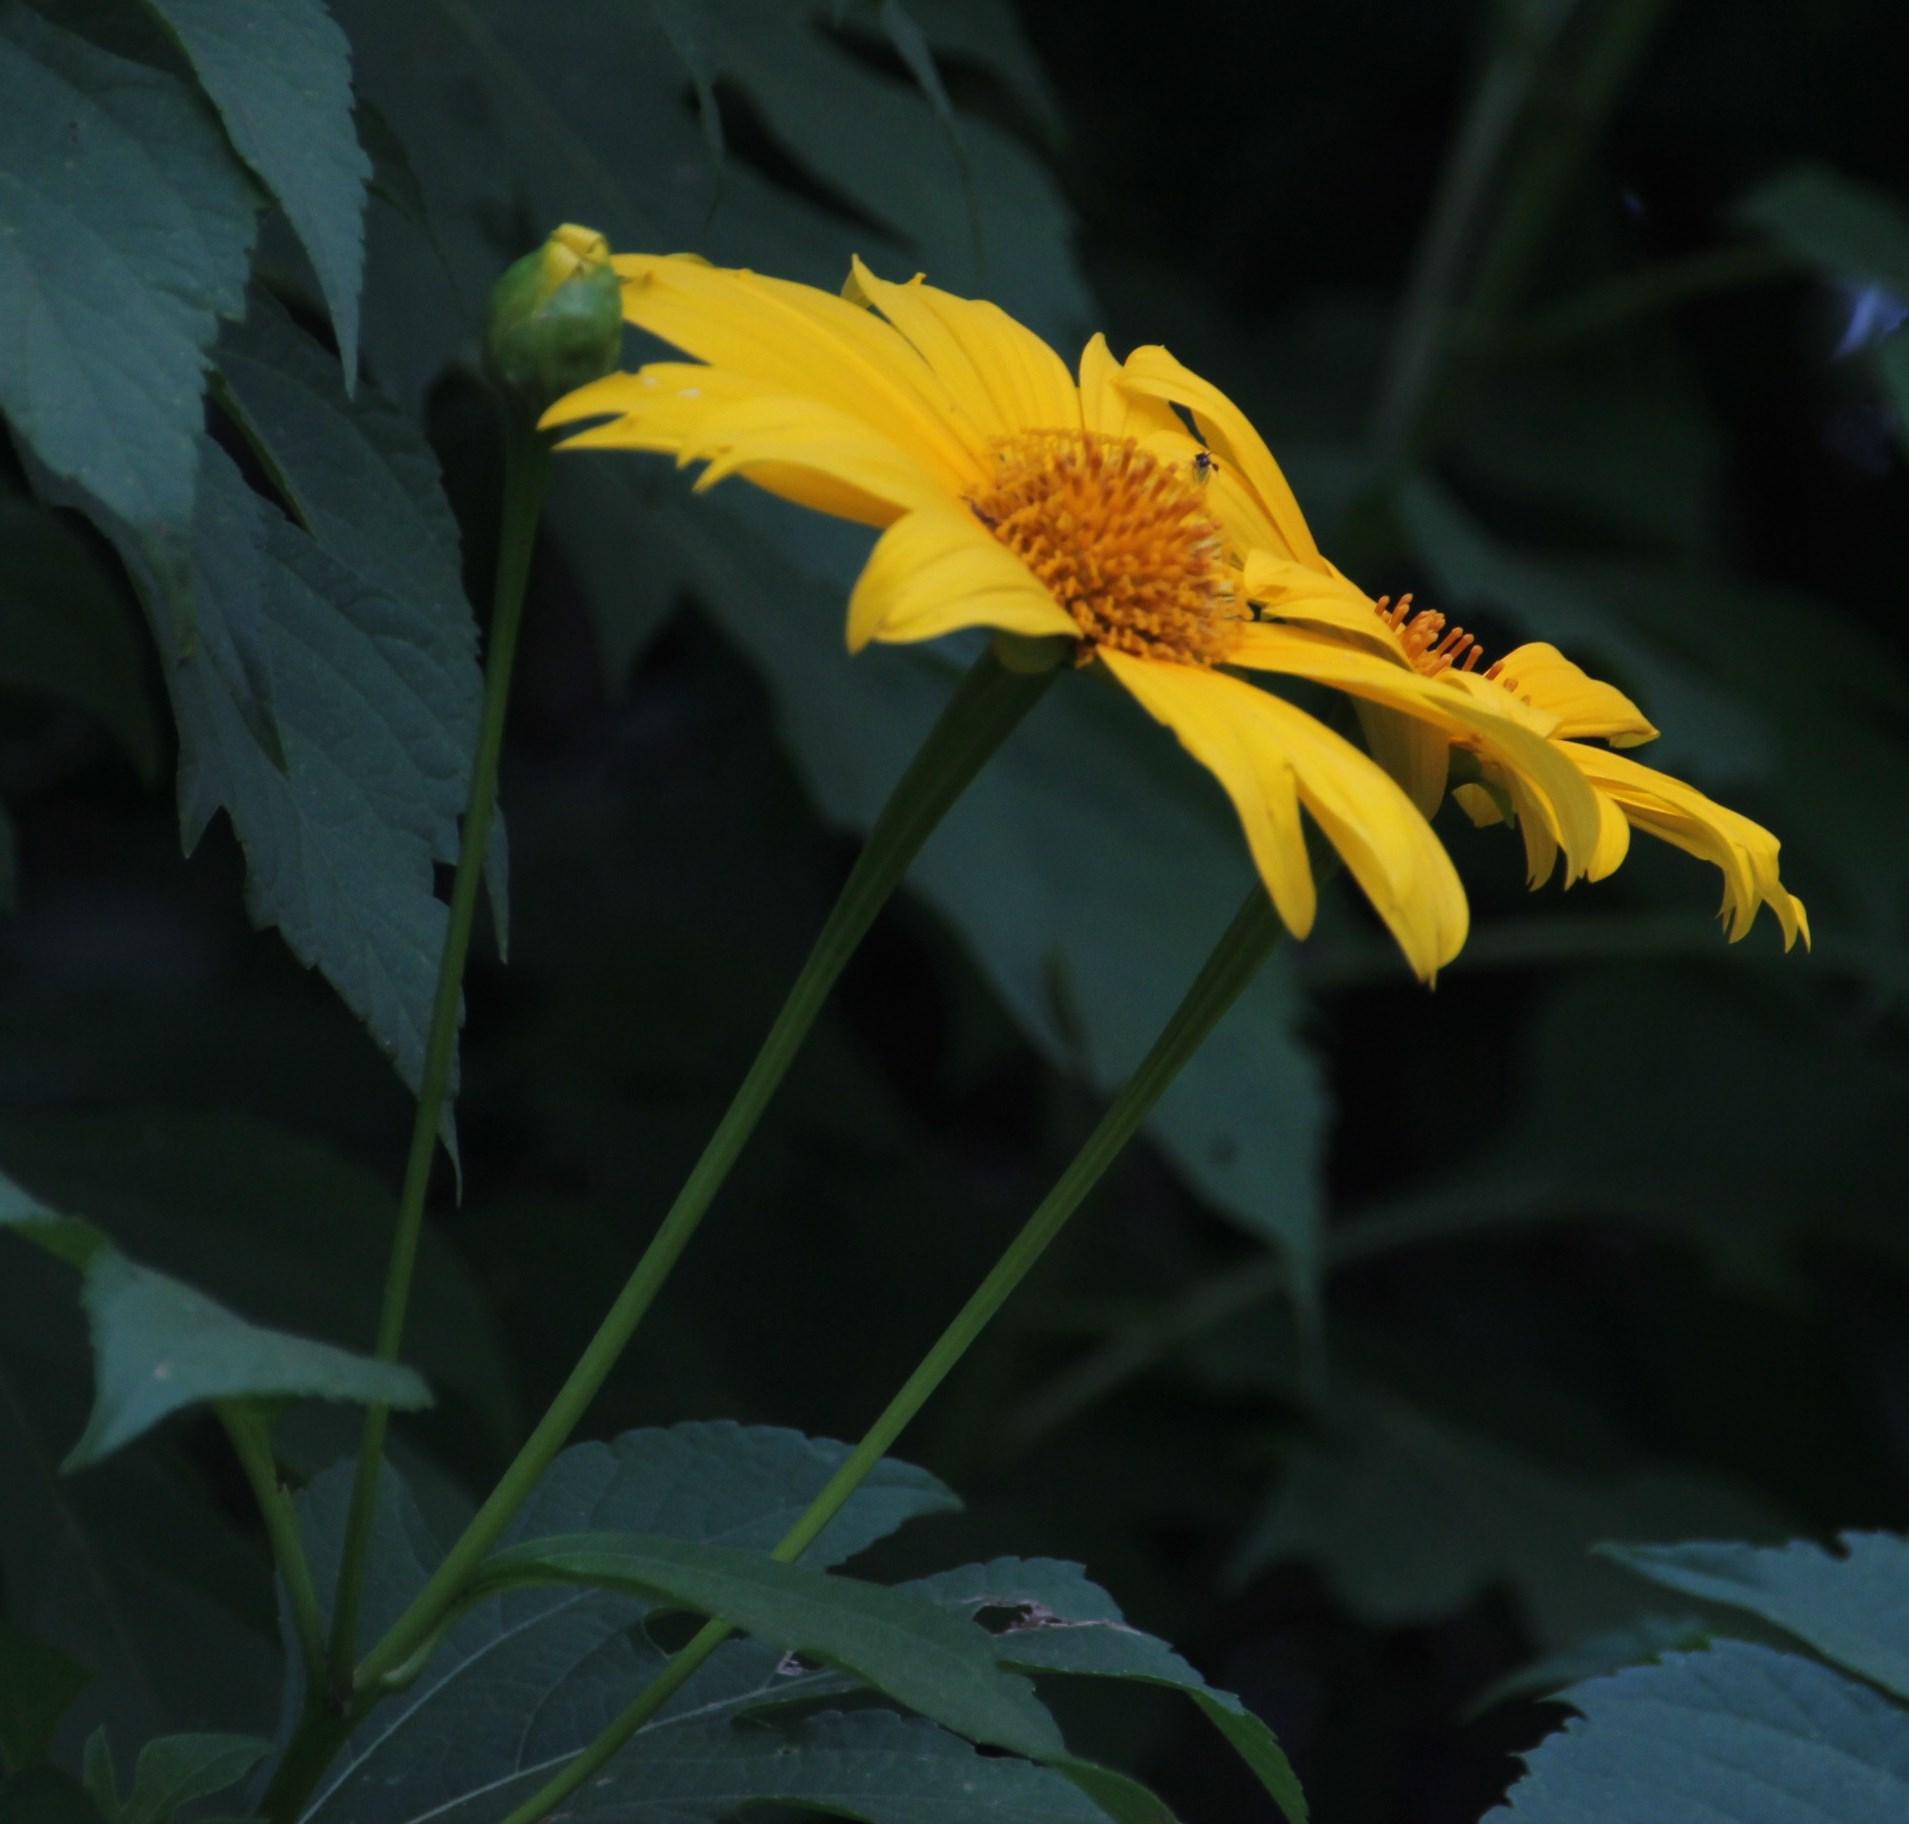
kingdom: Plantae
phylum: Tracheophyta
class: Magnoliopsida
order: Asterales
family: Asteraceae
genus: Tithonia
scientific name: Tithonia diversifolia
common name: Tree marigold
